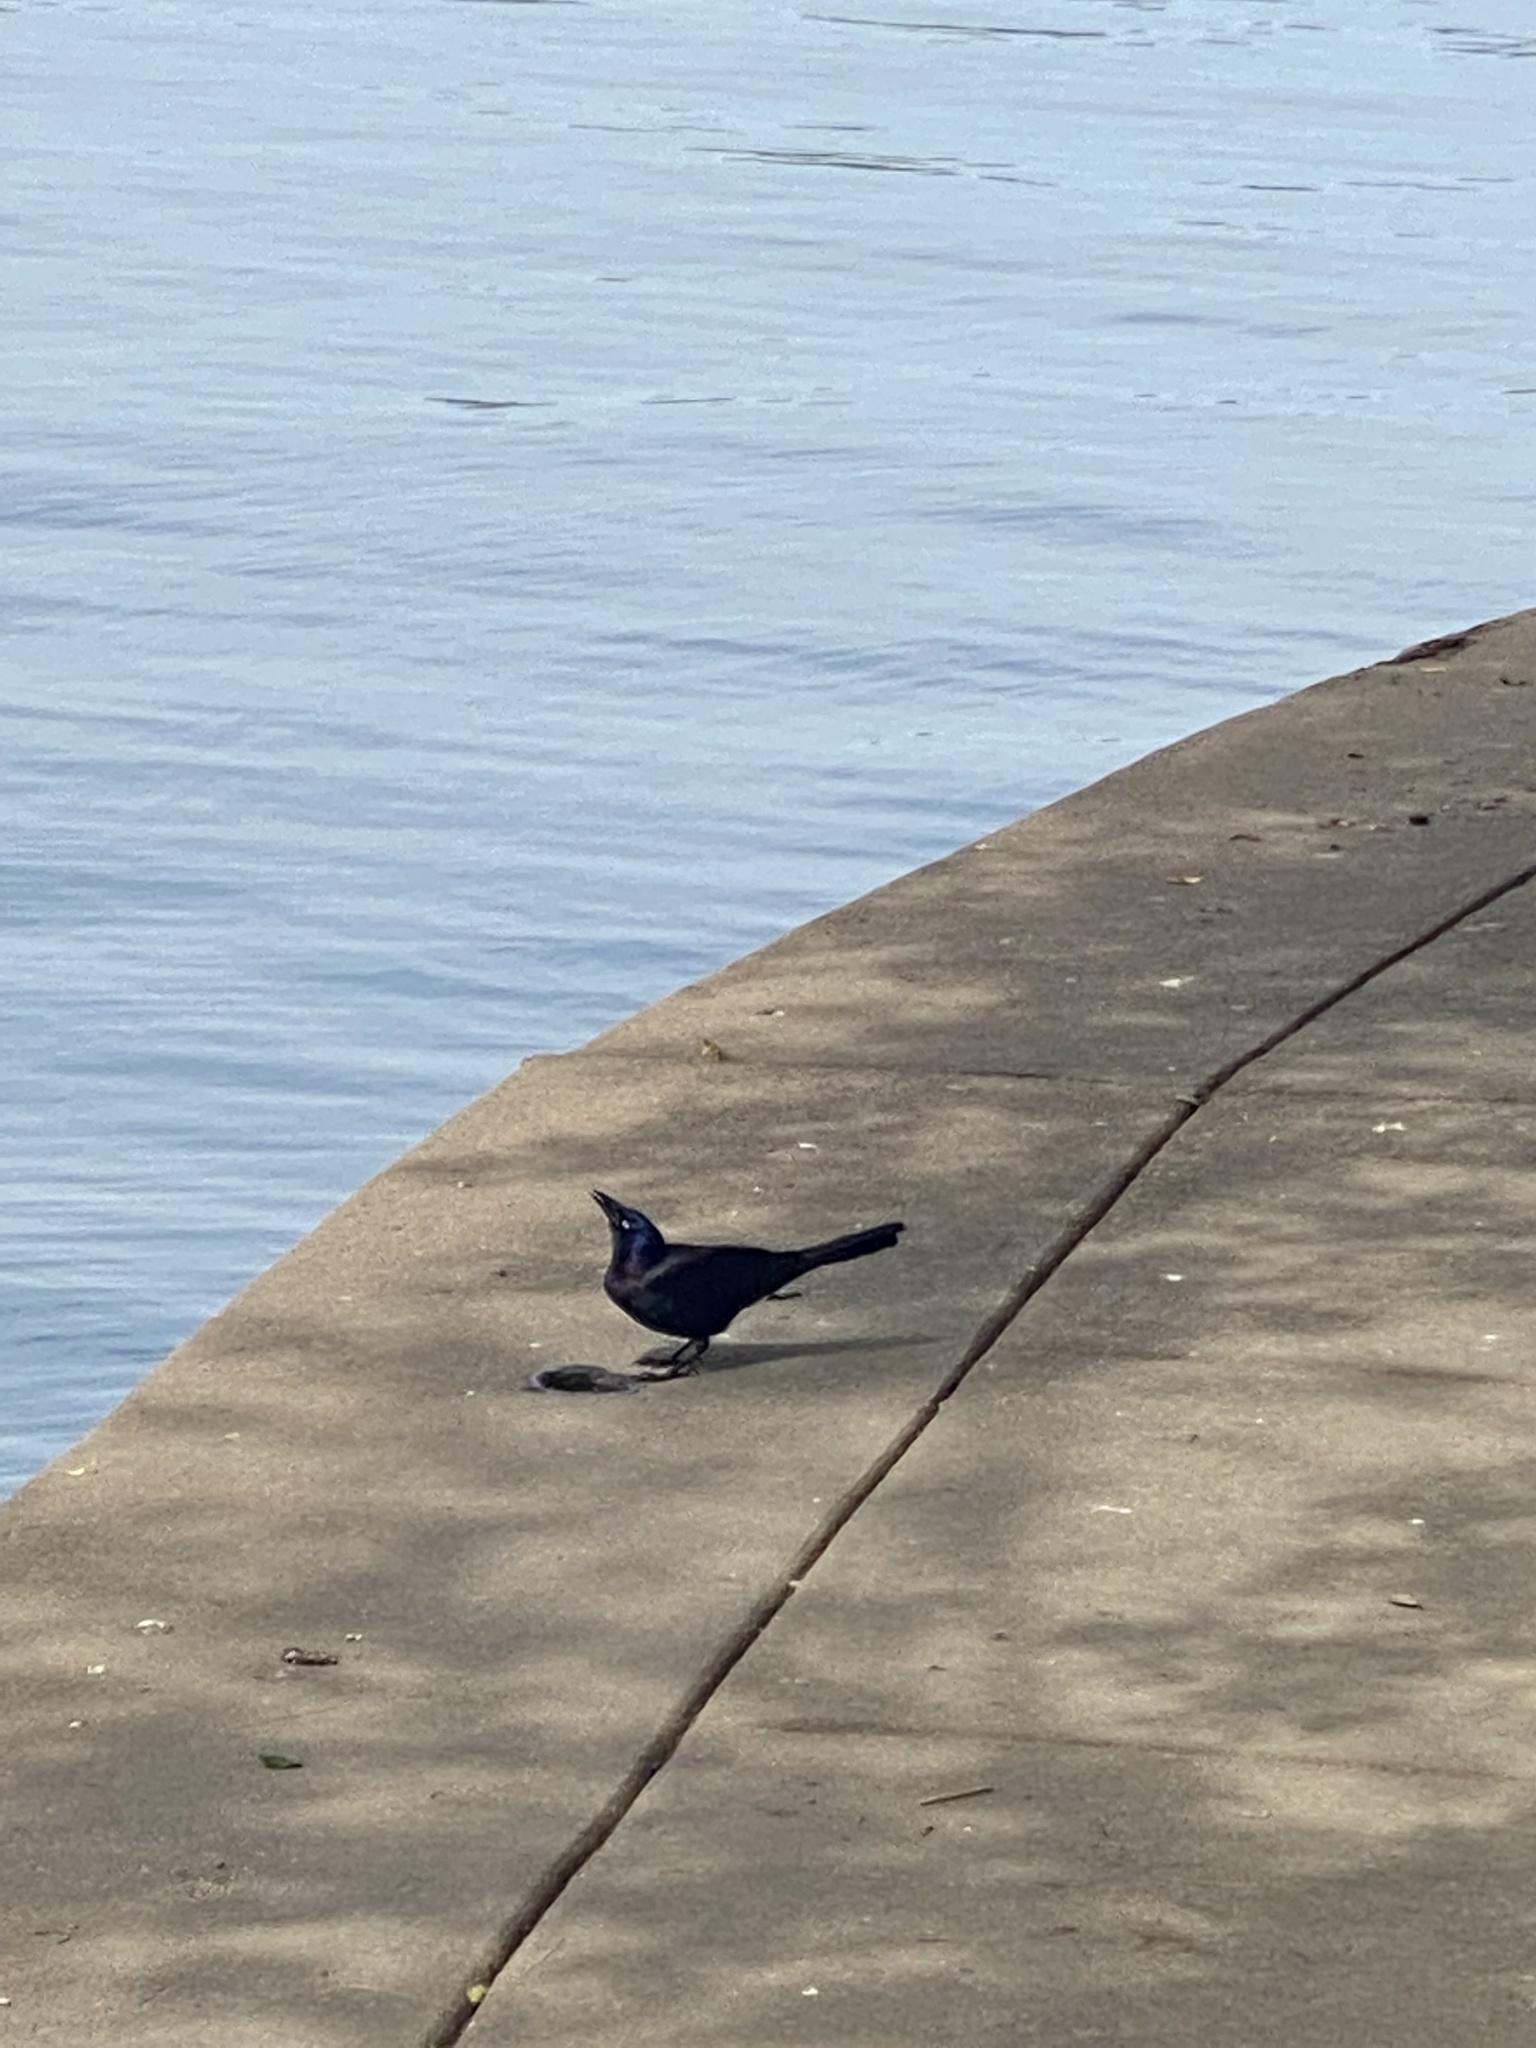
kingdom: Animalia
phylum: Chordata
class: Aves
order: Passeriformes
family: Icteridae
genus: Quiscalus
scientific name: Quiscalus quiscula
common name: Common grackle
